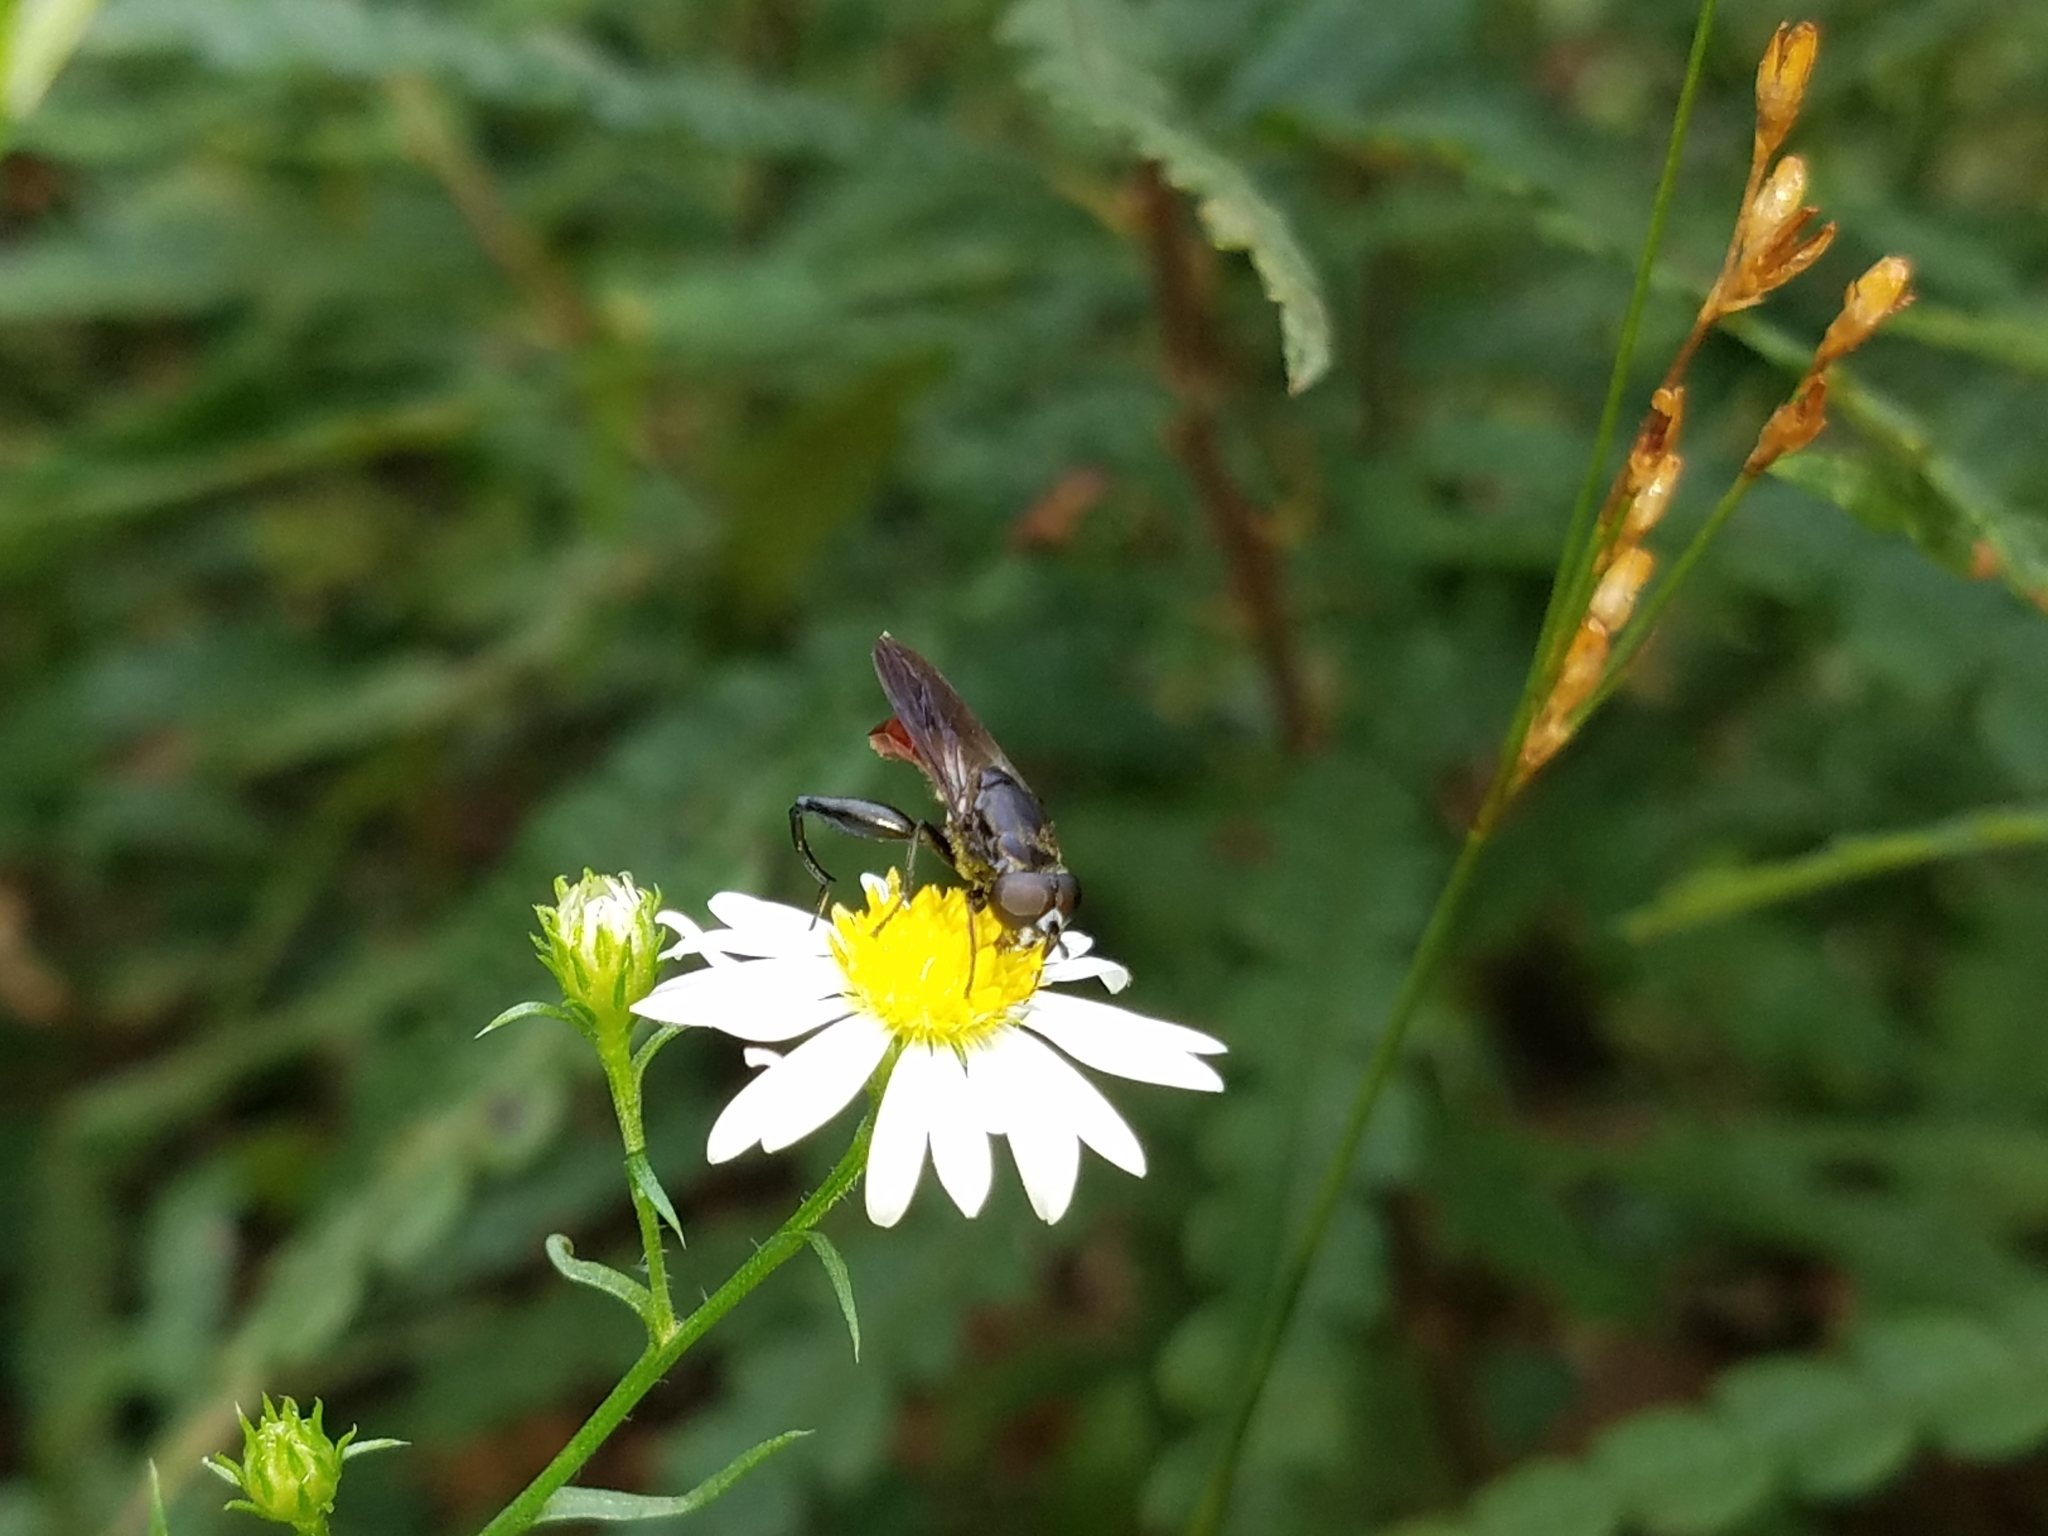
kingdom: Animalia
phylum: Arthropoda
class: Insecta
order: Diptera
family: Syrphidae
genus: Chalcosyrphus
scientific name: Chalcosyrphus piger
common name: Short-haired leafwalker
